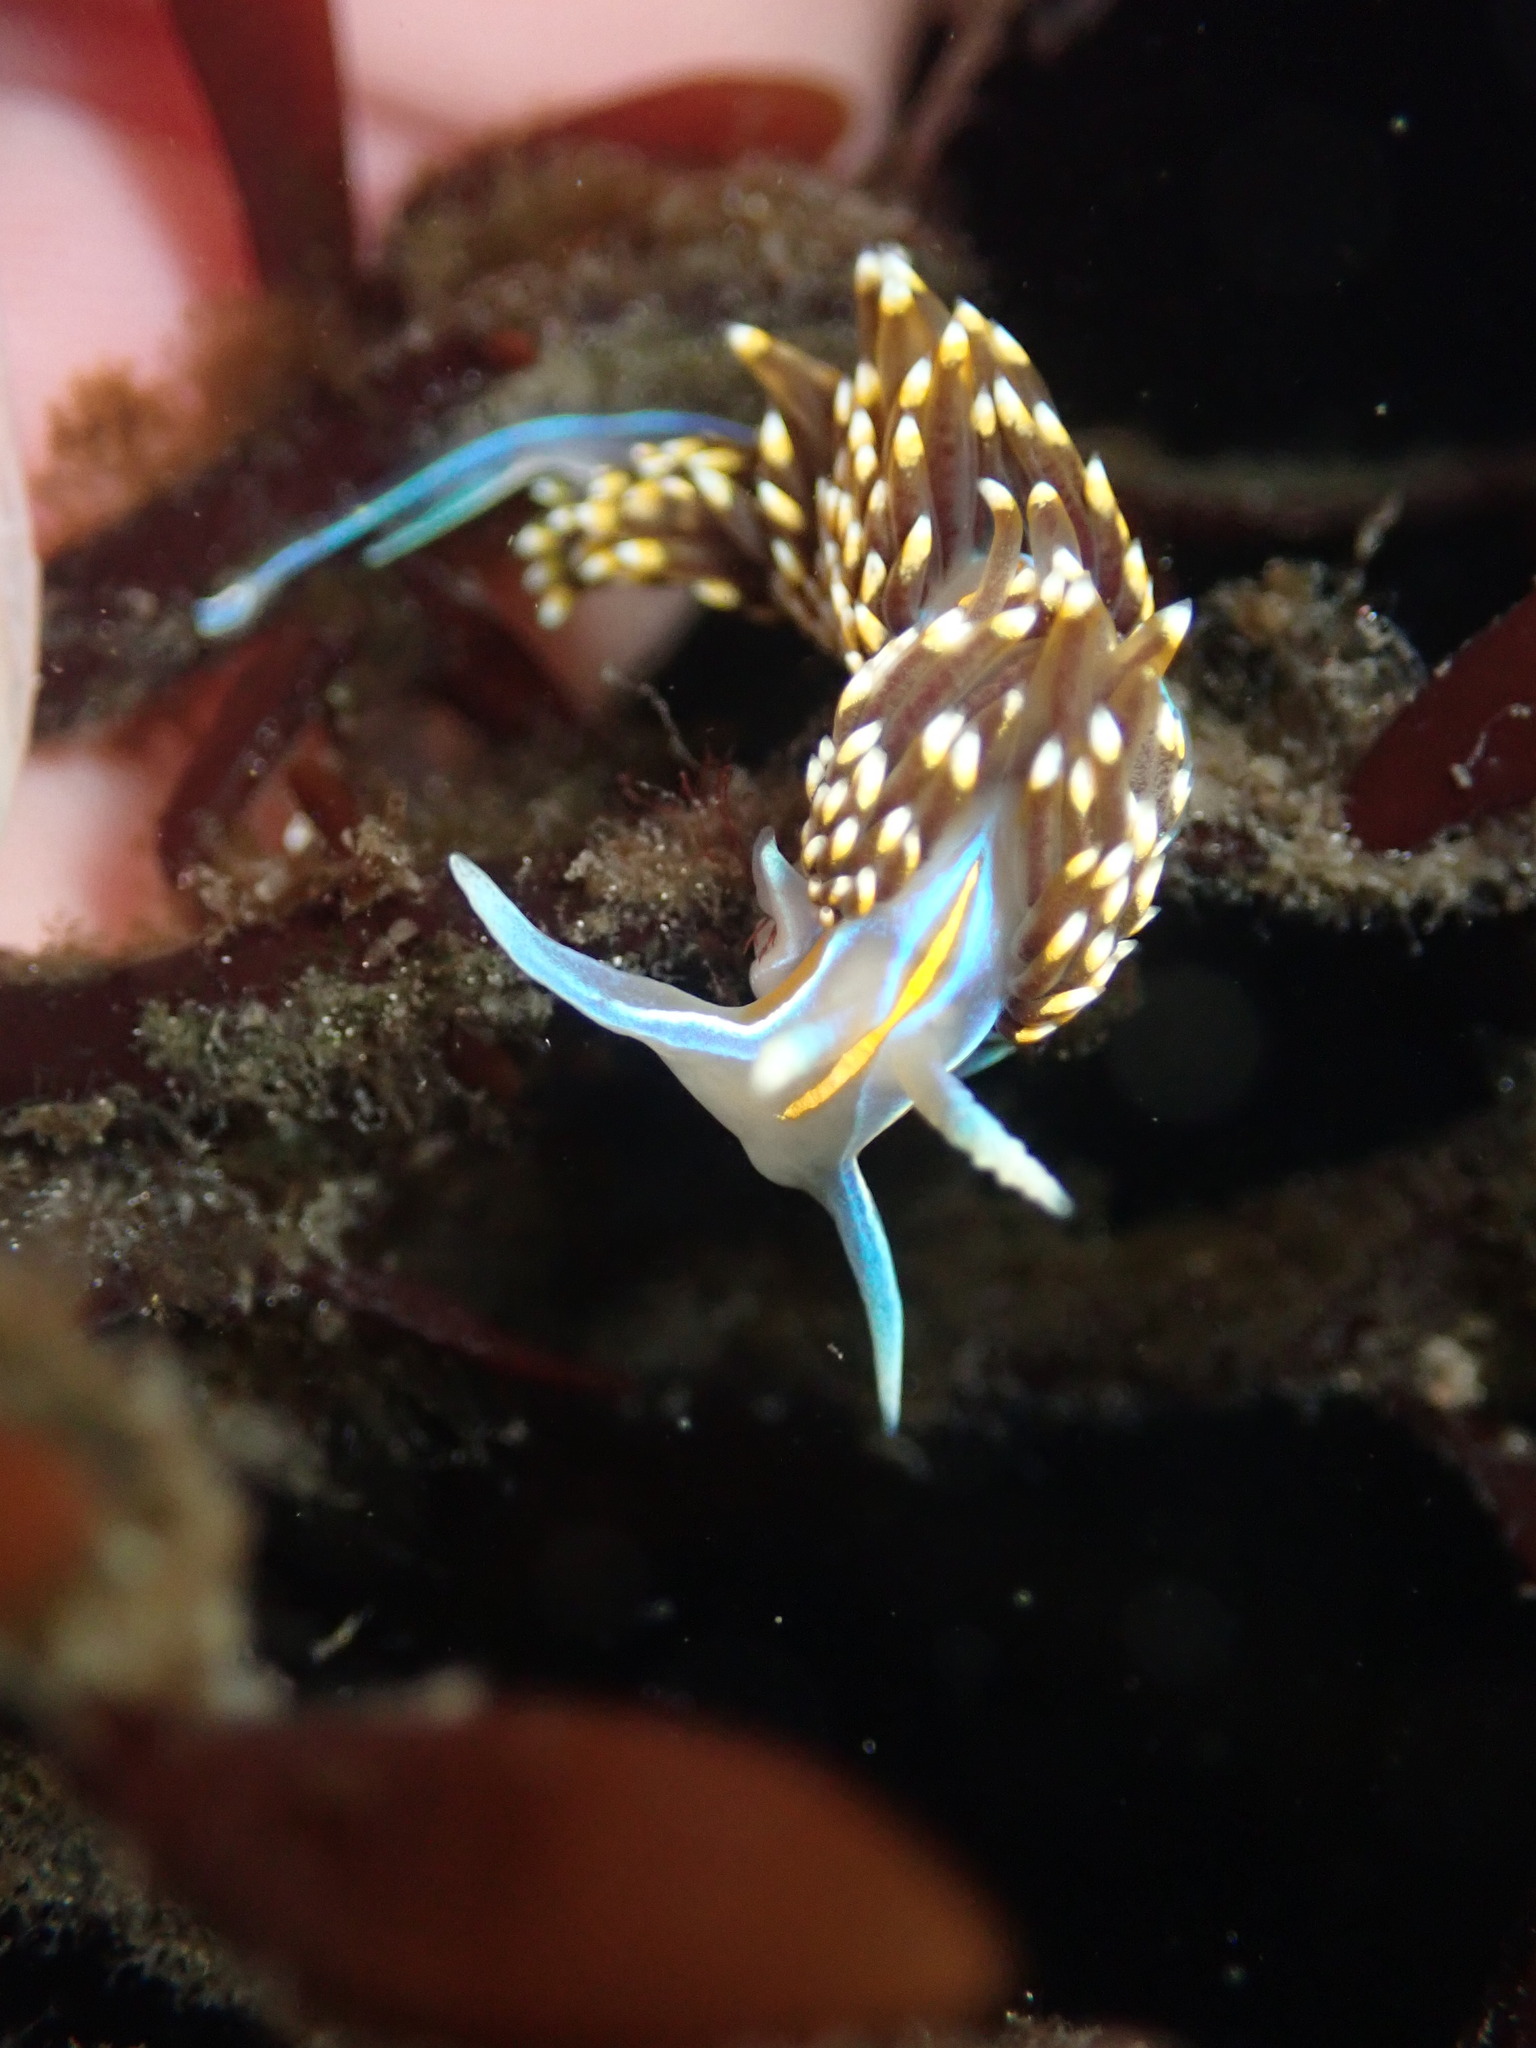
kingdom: Animalia
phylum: Mollusca
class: Gastropoda
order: Nudibranchia
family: Myrrhinidae
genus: Hermissenda
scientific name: Hermissenda opalescens
